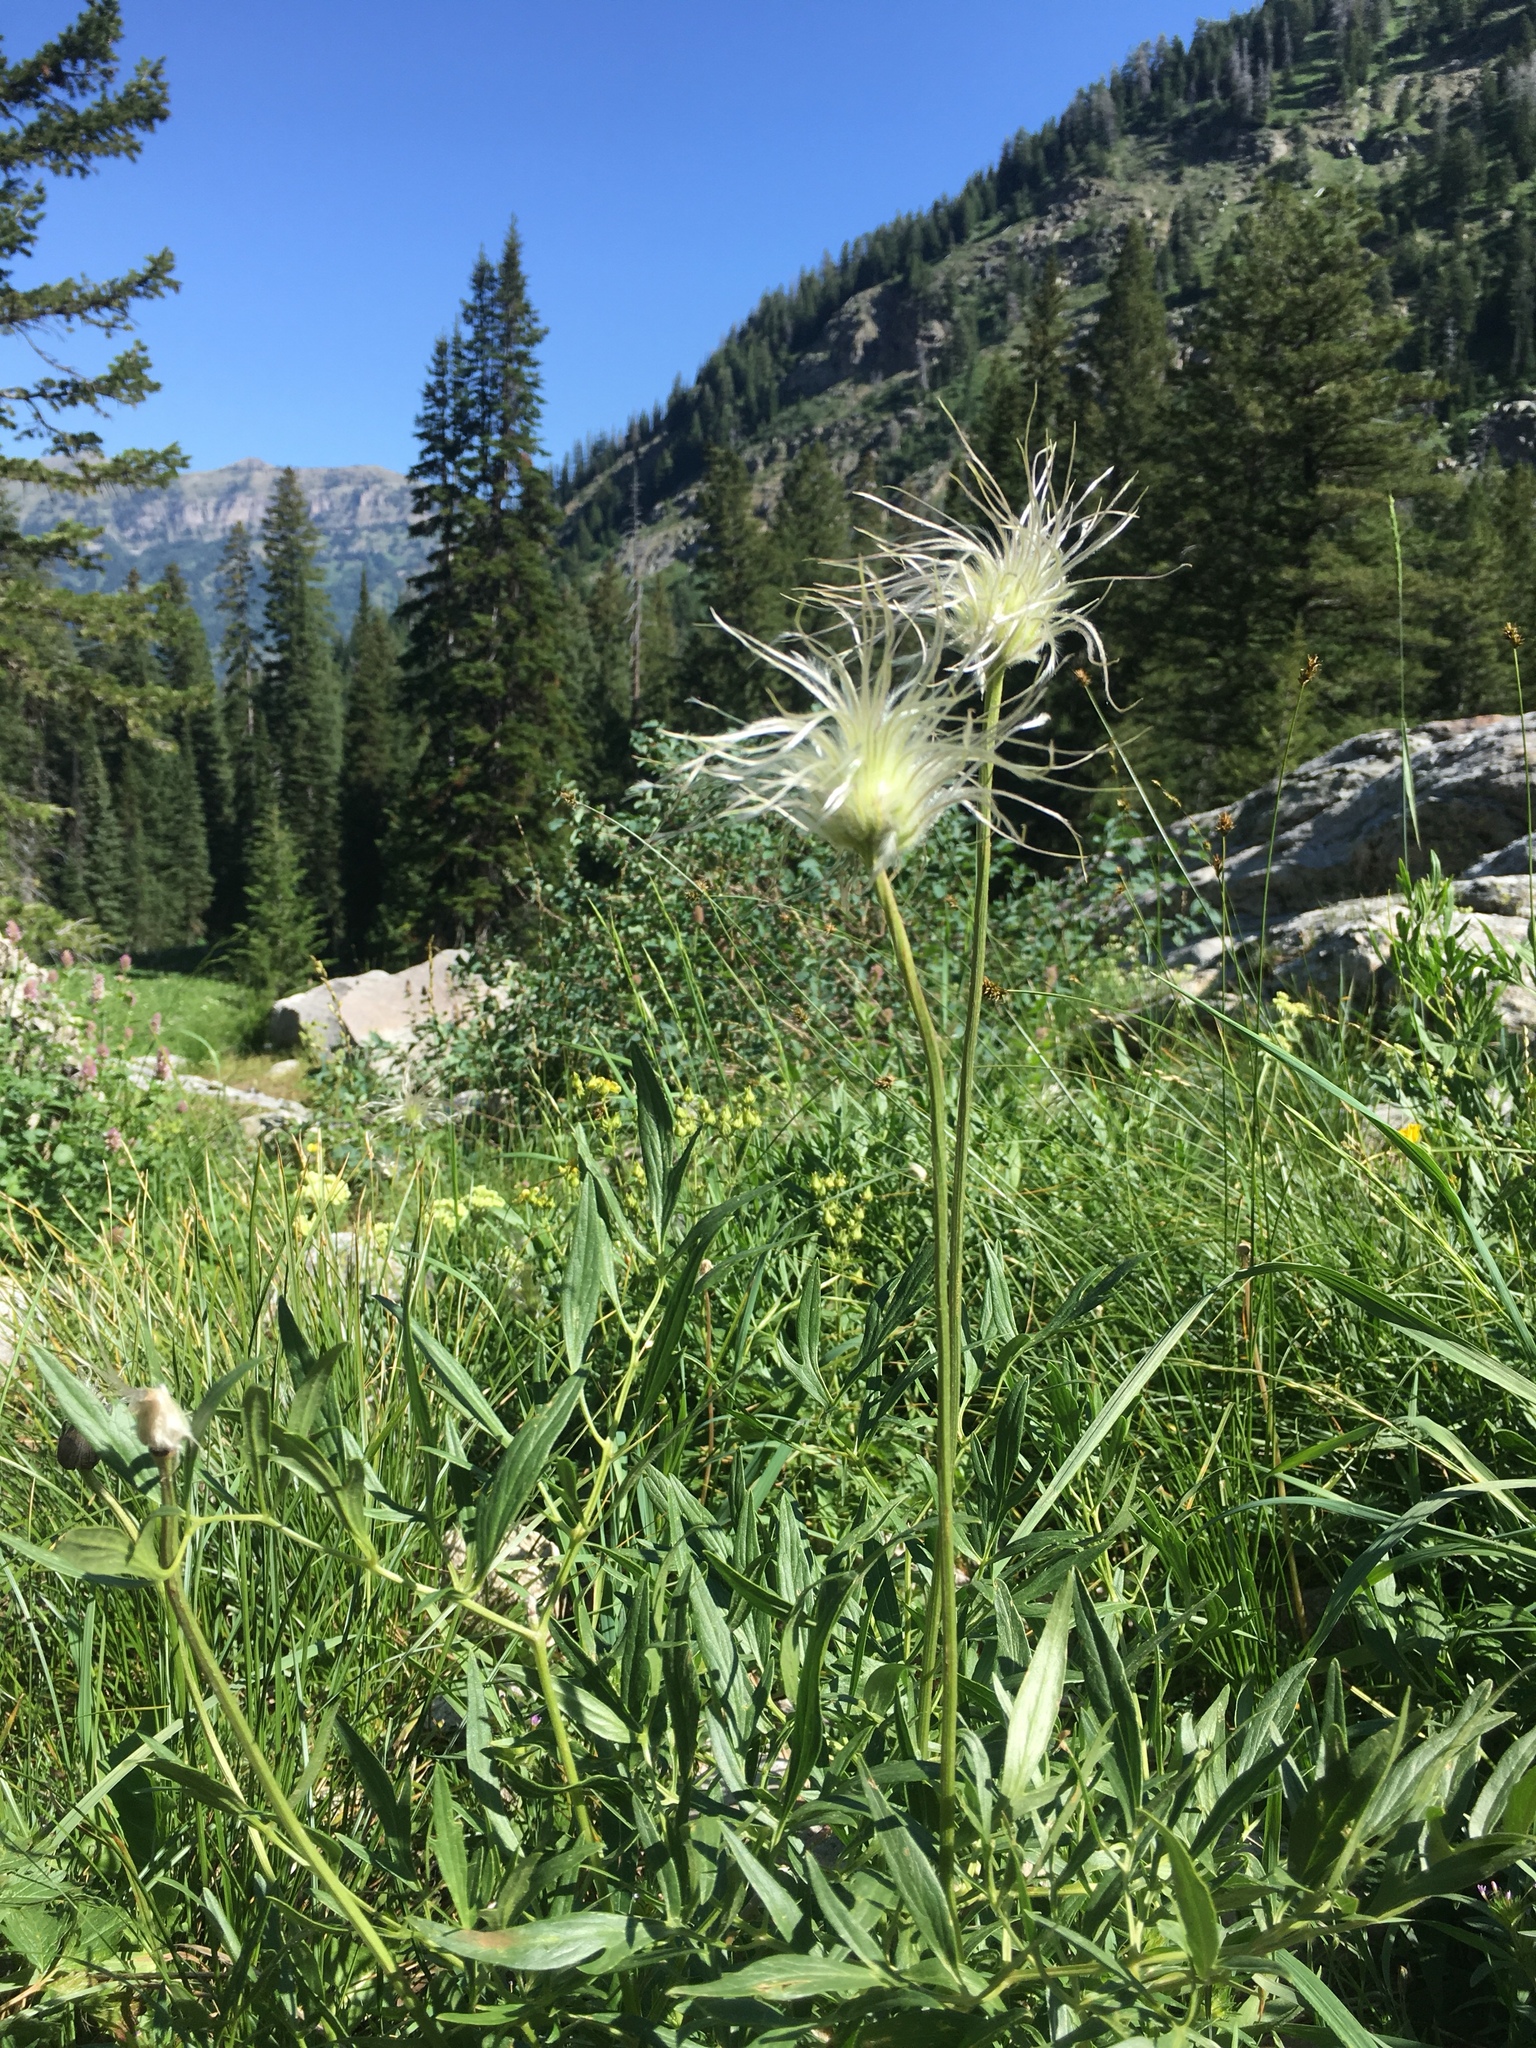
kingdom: Plantae
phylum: Tracheophyta
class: Magnoliopsida
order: Ranunculales
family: Ranunculaceae
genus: Clematis
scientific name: Clematis hirsutissima
